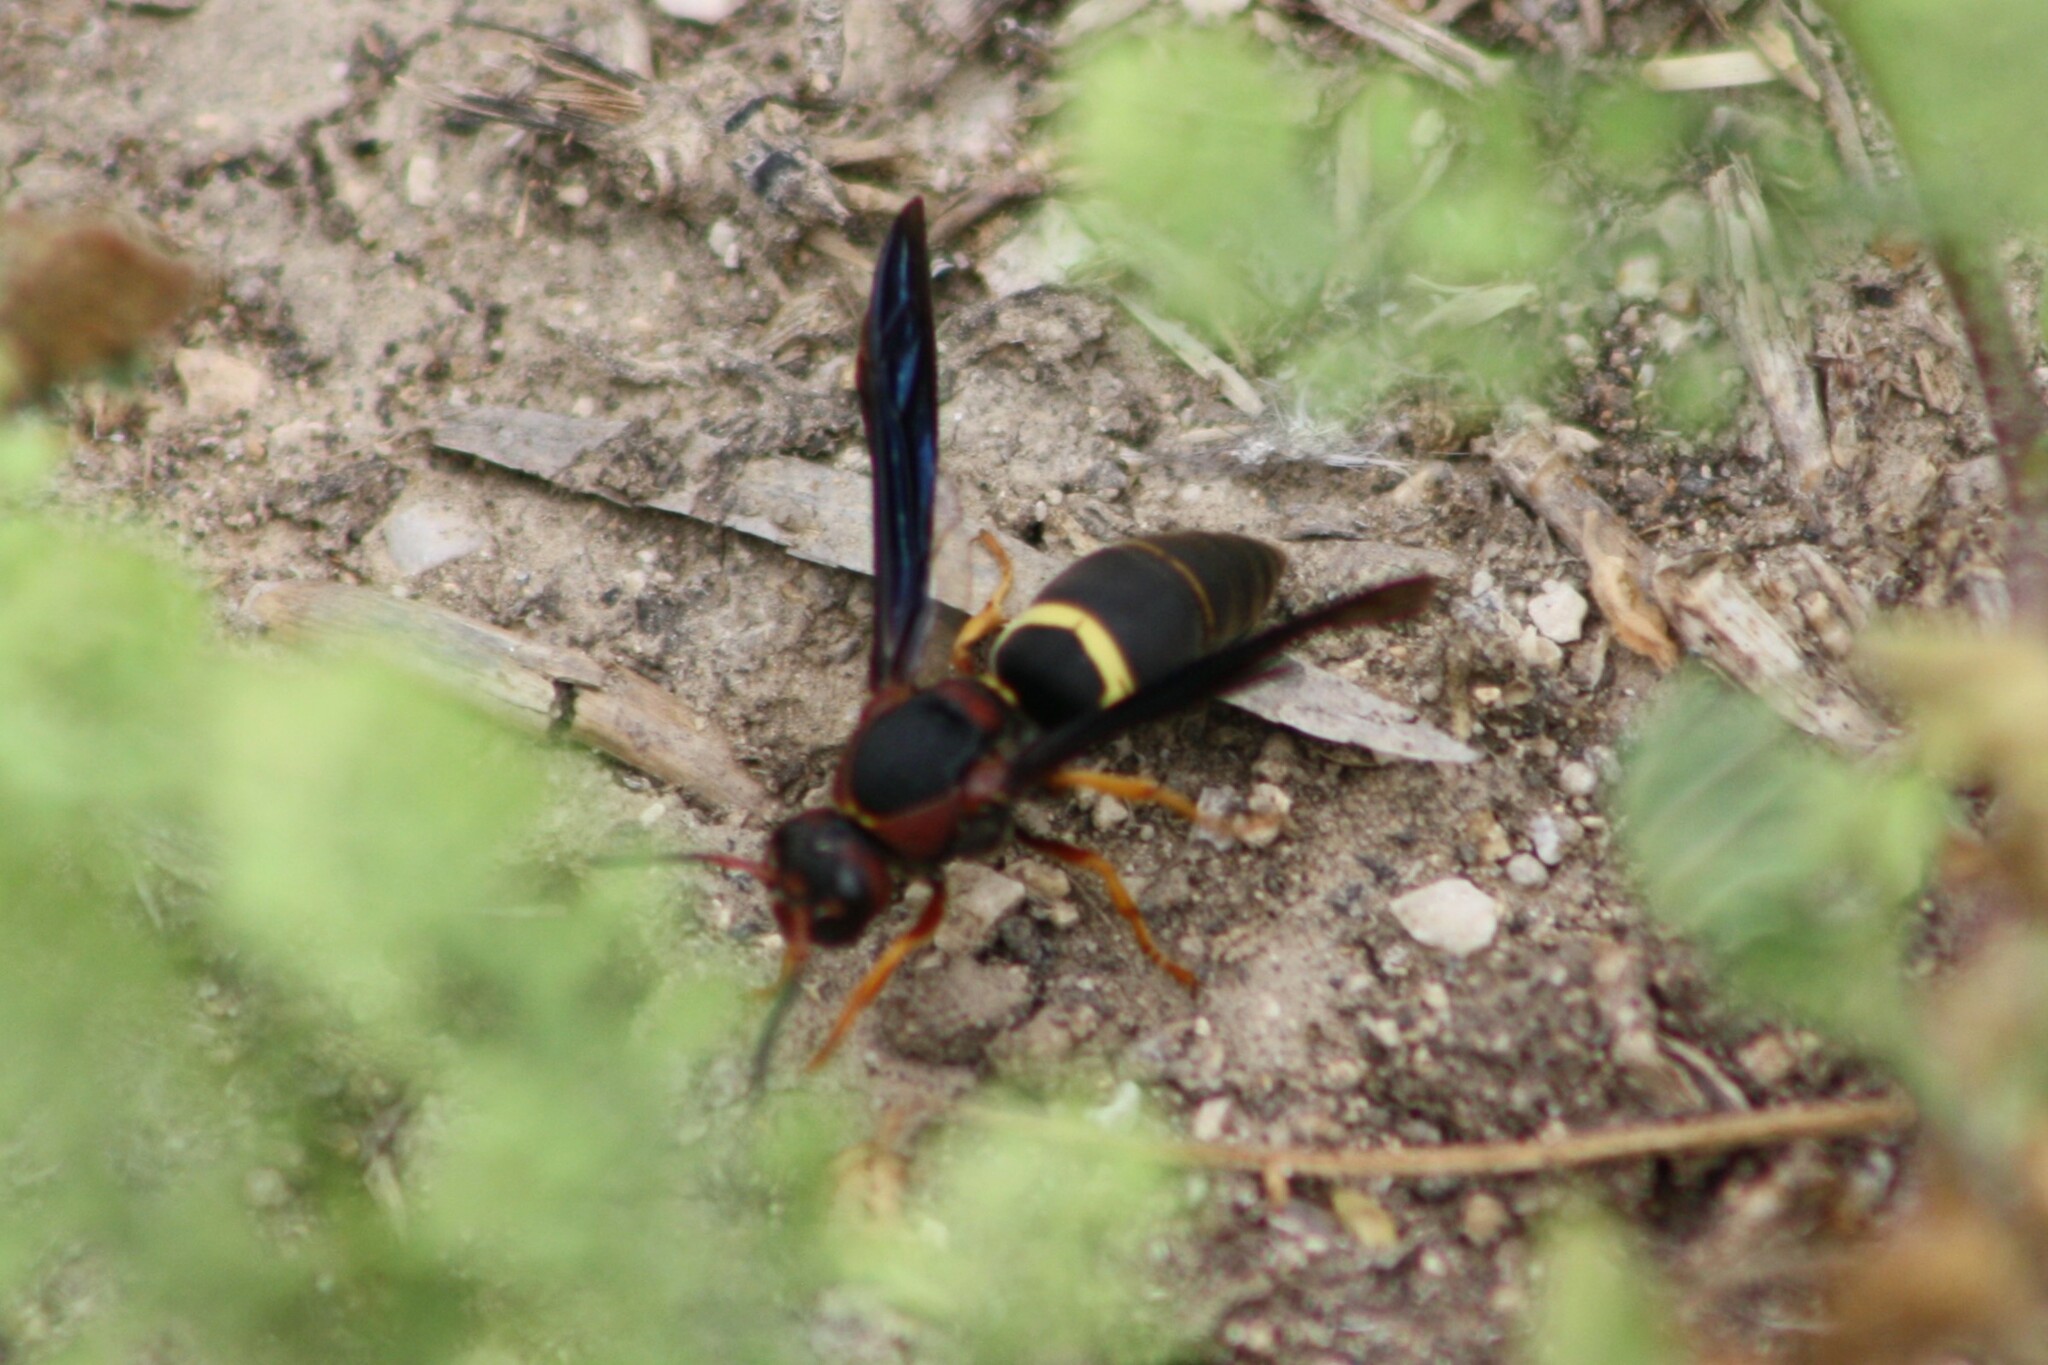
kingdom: Animalia
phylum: Arthropoda
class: Insecta
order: Hymenoptera
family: Eumenidae
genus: Euodynerus
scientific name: Euodynerus crypticus
